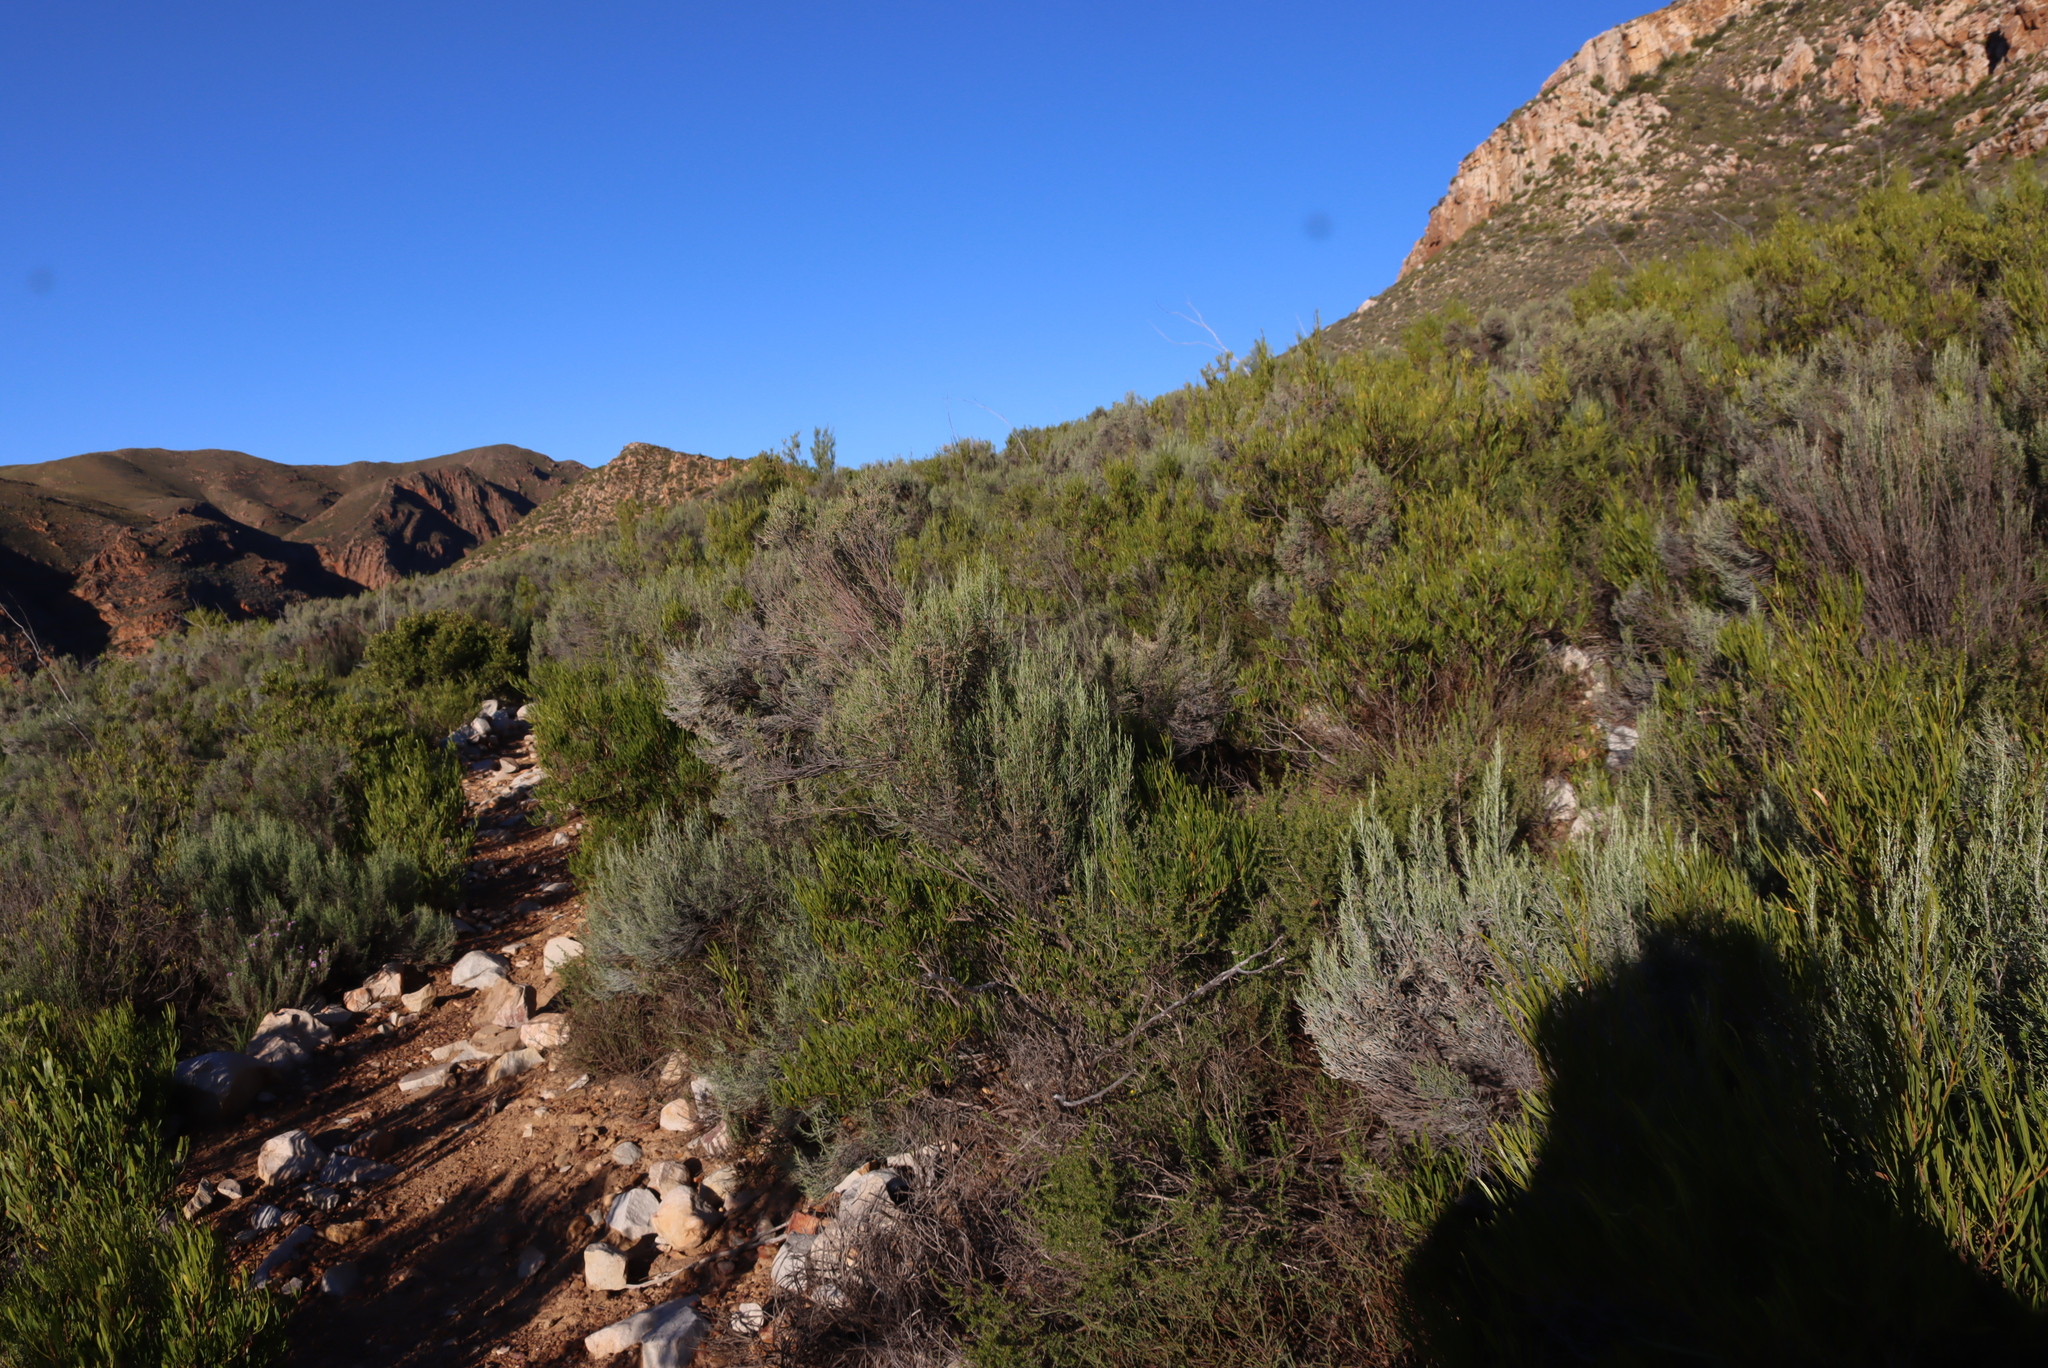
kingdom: Plantae
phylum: Tracheophyta
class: Magnoliopsida
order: Asterales
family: Asteraceae
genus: Dicerothamnus
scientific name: Dicerothamnus rhinocerotis
